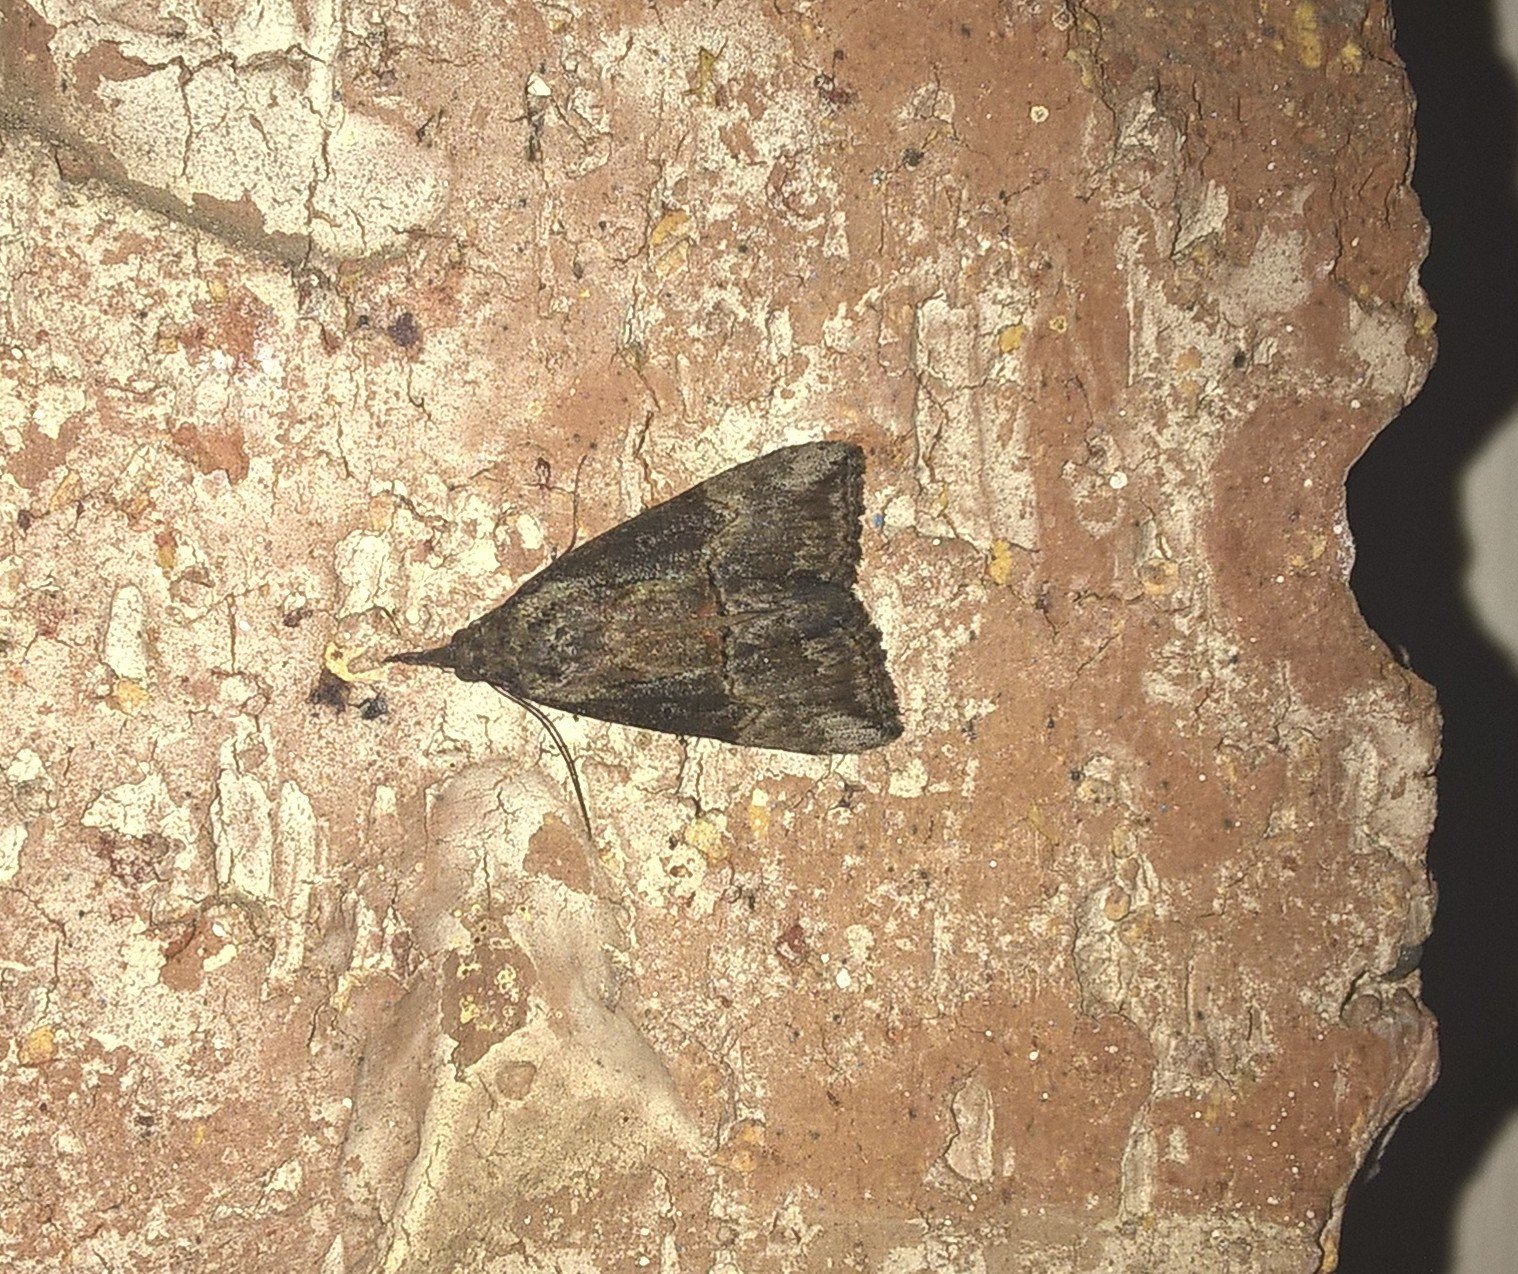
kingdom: Animalia
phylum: Arthropoda
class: Insecta
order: Lepidoptera
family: Erebidae
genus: Hypena
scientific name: Hypena scabra
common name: Green cloverworm
